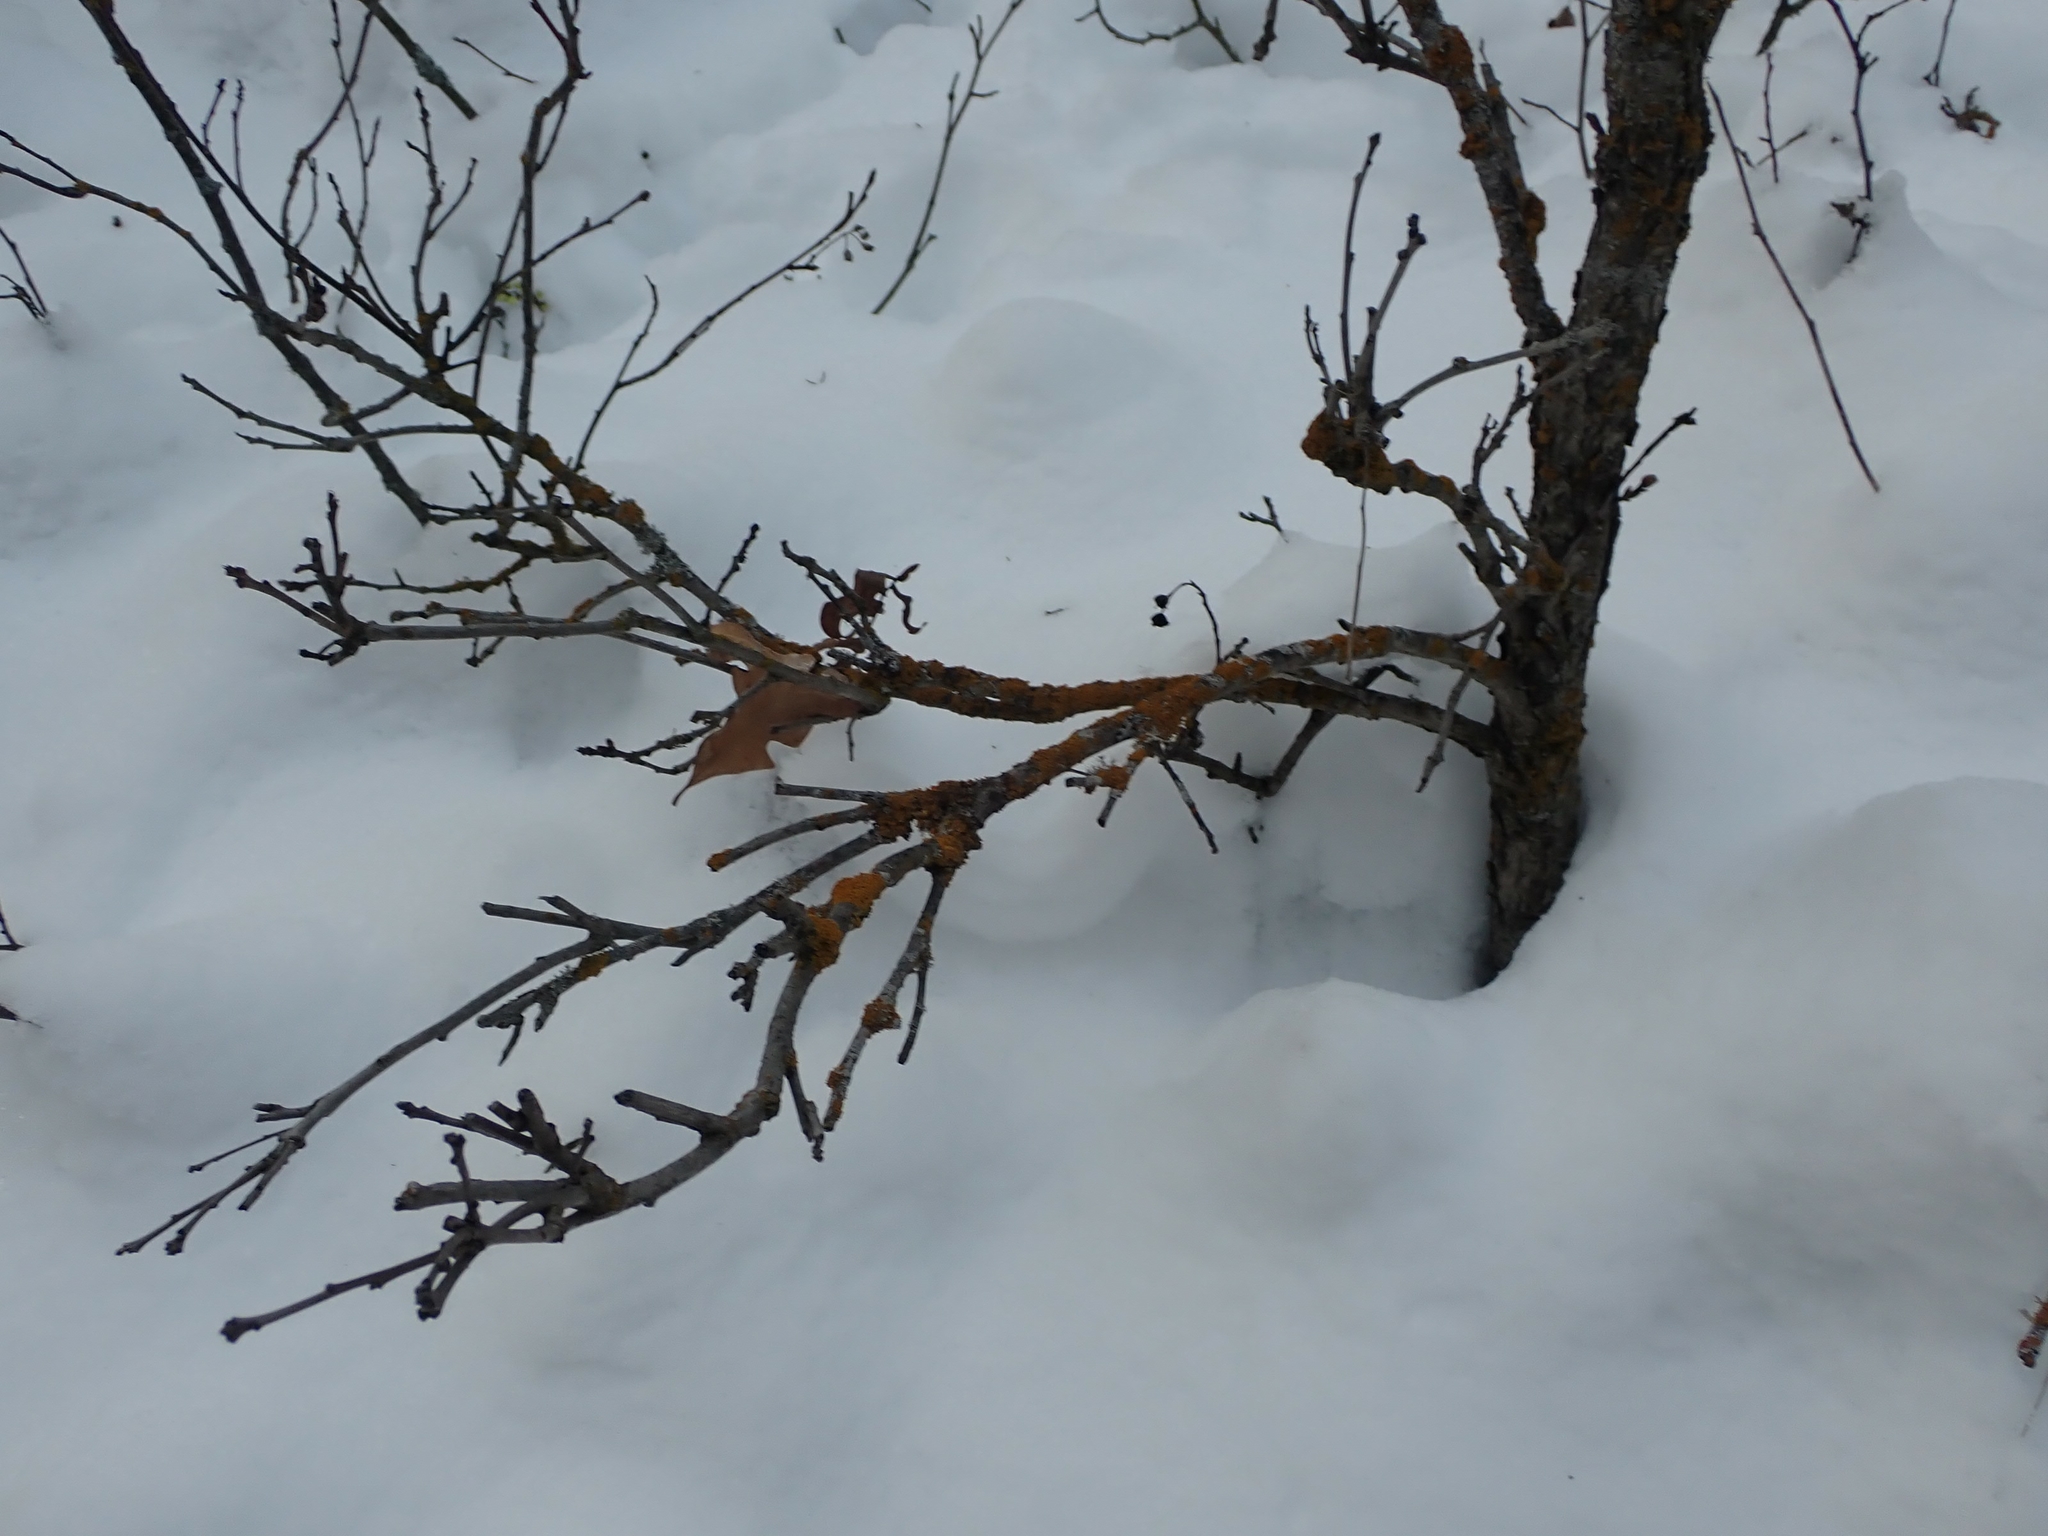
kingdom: Plantae
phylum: Tracheophyta
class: Magnoliopsida
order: Fagales
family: Fagaceae
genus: Quercus
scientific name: Quercus macrocarpa
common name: Bur oak
